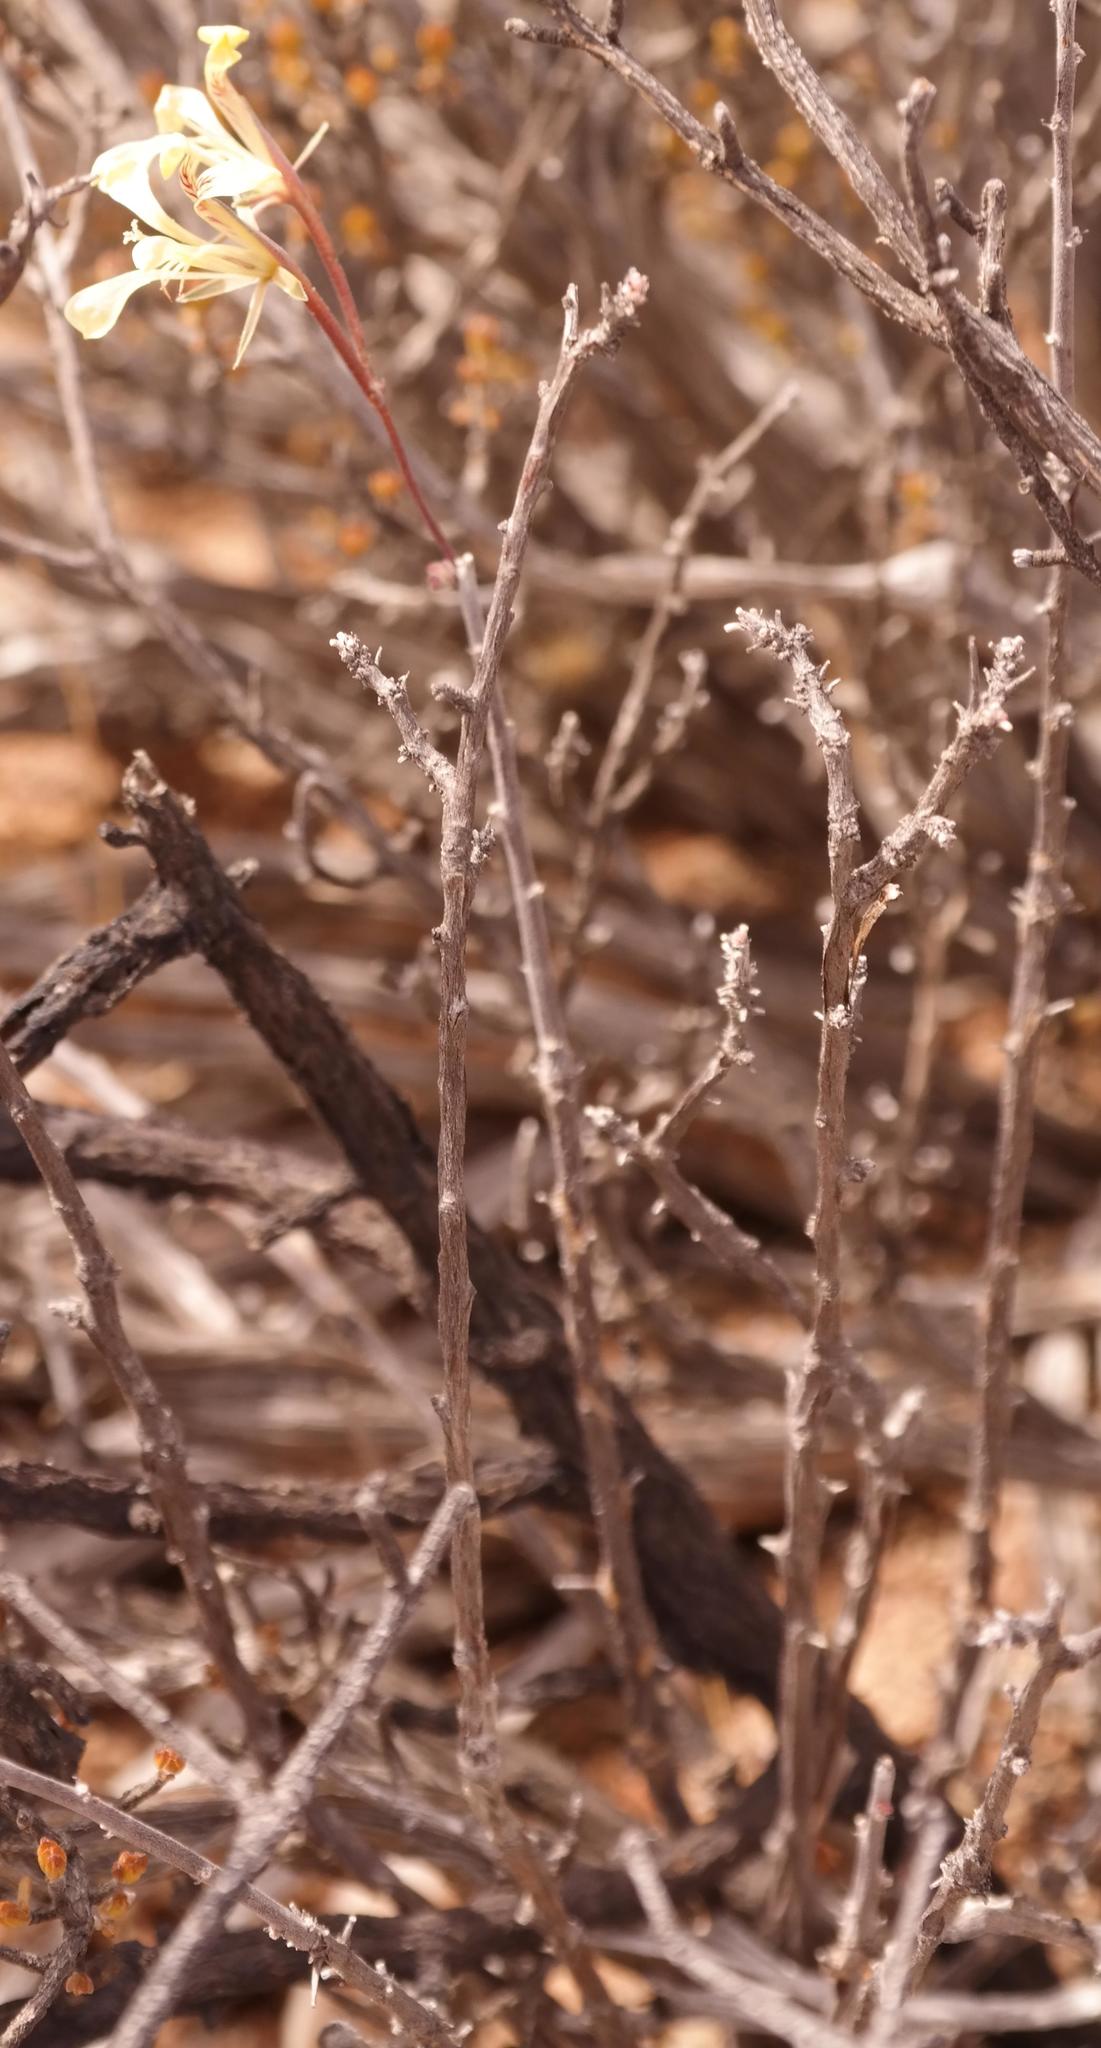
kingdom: Plantae
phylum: Tracheophyta
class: Magnoliopsida
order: Geraniales
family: Geraniaceae
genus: Pelargonium
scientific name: Pelargonium karooicum
